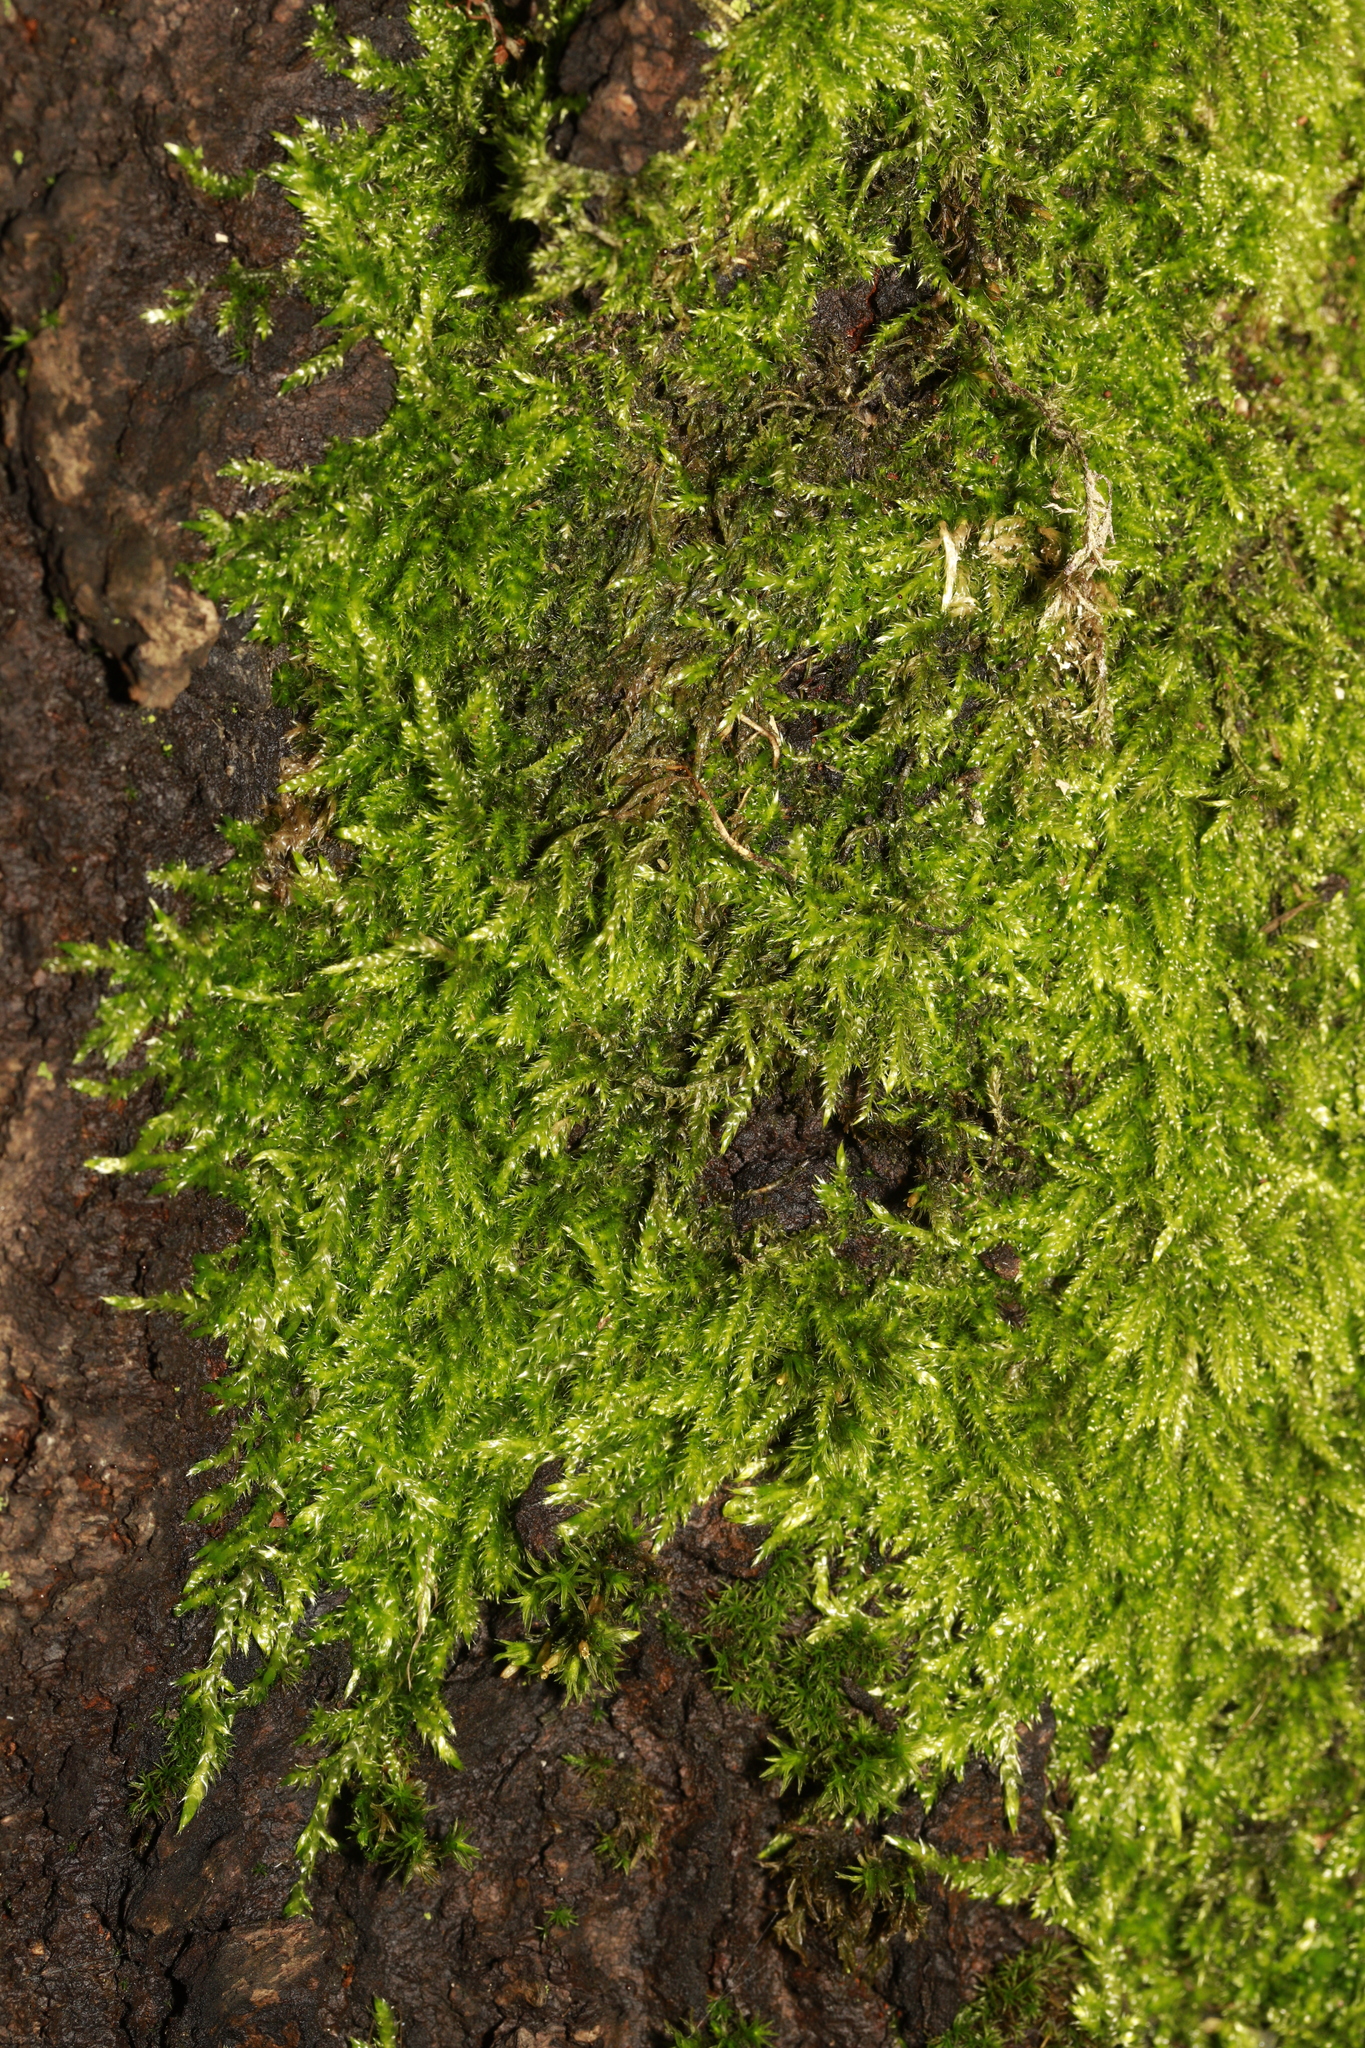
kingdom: Plantae
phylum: Bryophyta
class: Bryopsida
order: Hypnales
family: Hypnaceae
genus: Hypnum
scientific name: Hypnum resupinatum
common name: Supine plait-moss
